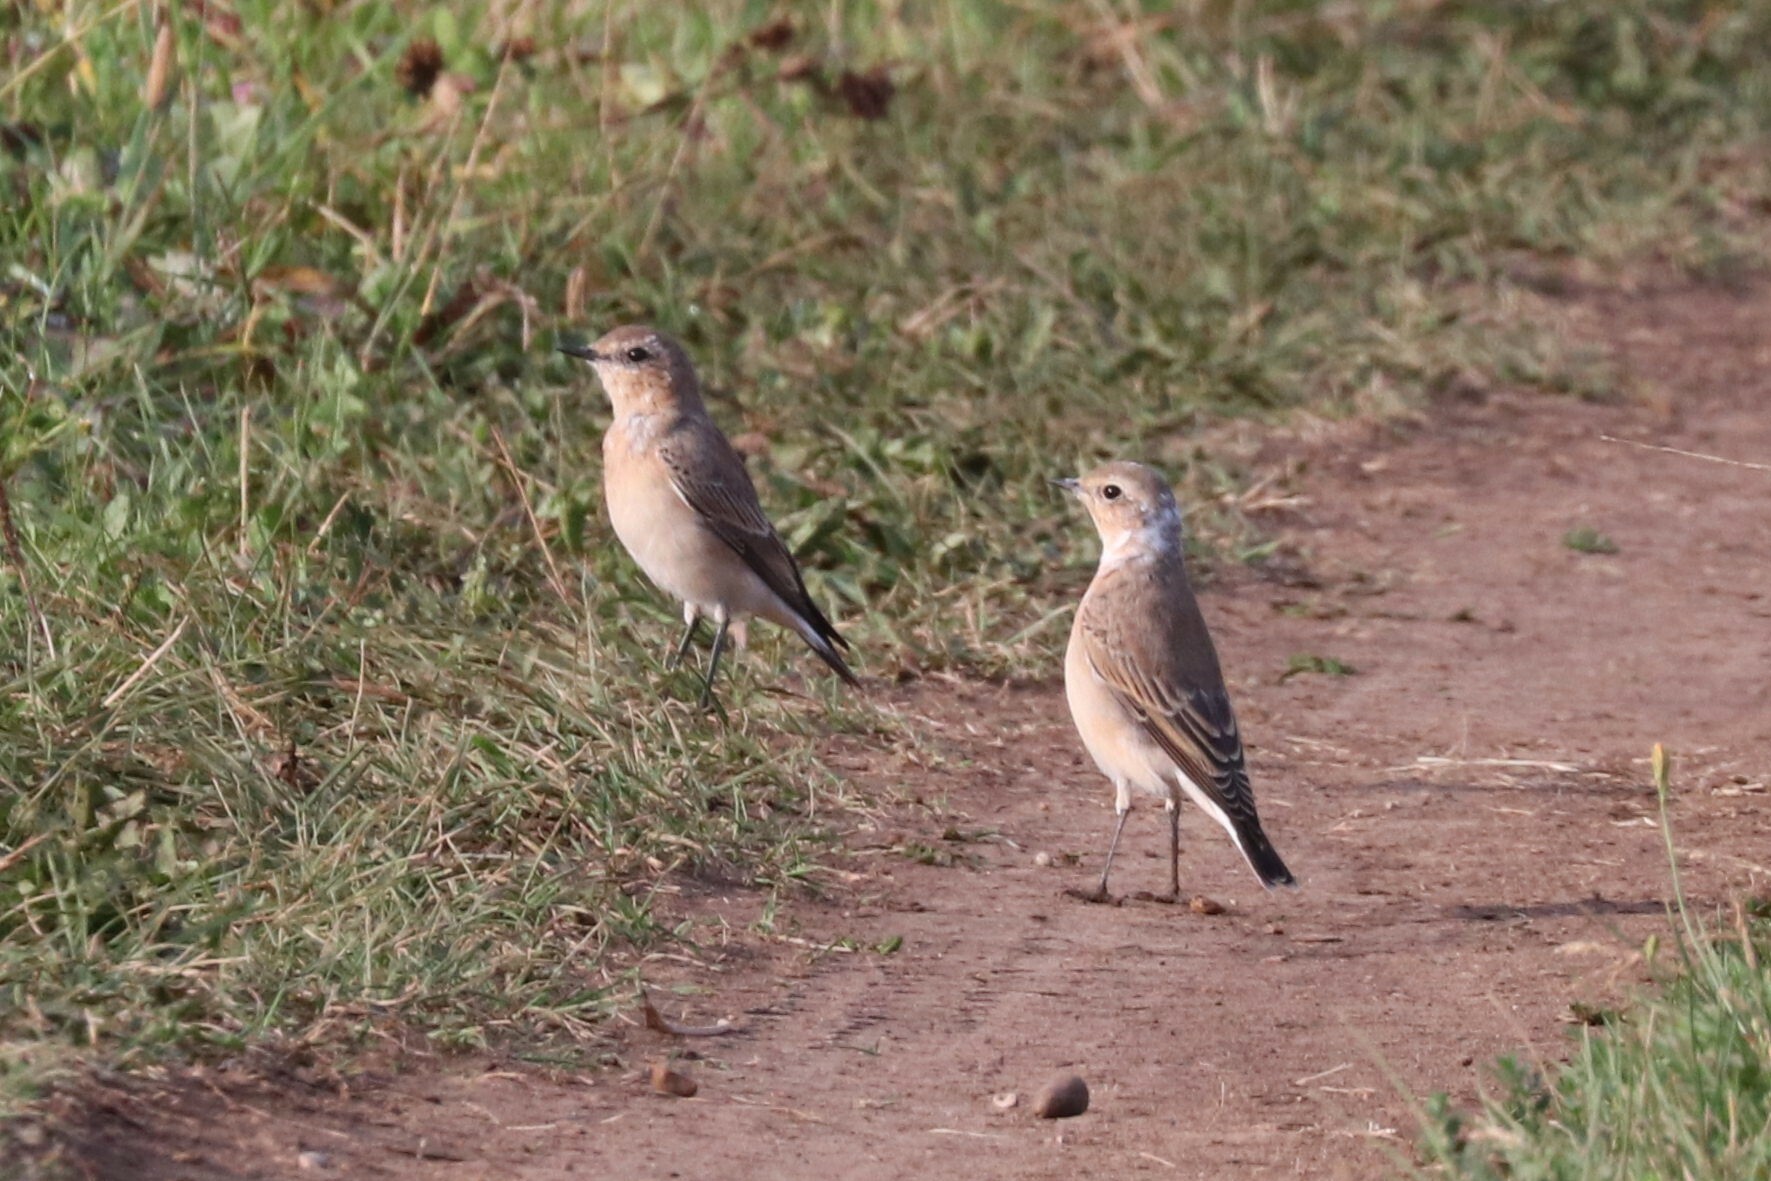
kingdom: Animalia
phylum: Chordata
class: Aves
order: Passeriformes
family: Muscicapidae
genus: Oenanthe
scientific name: Oenanthe oenanthe
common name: Northern wheatear
